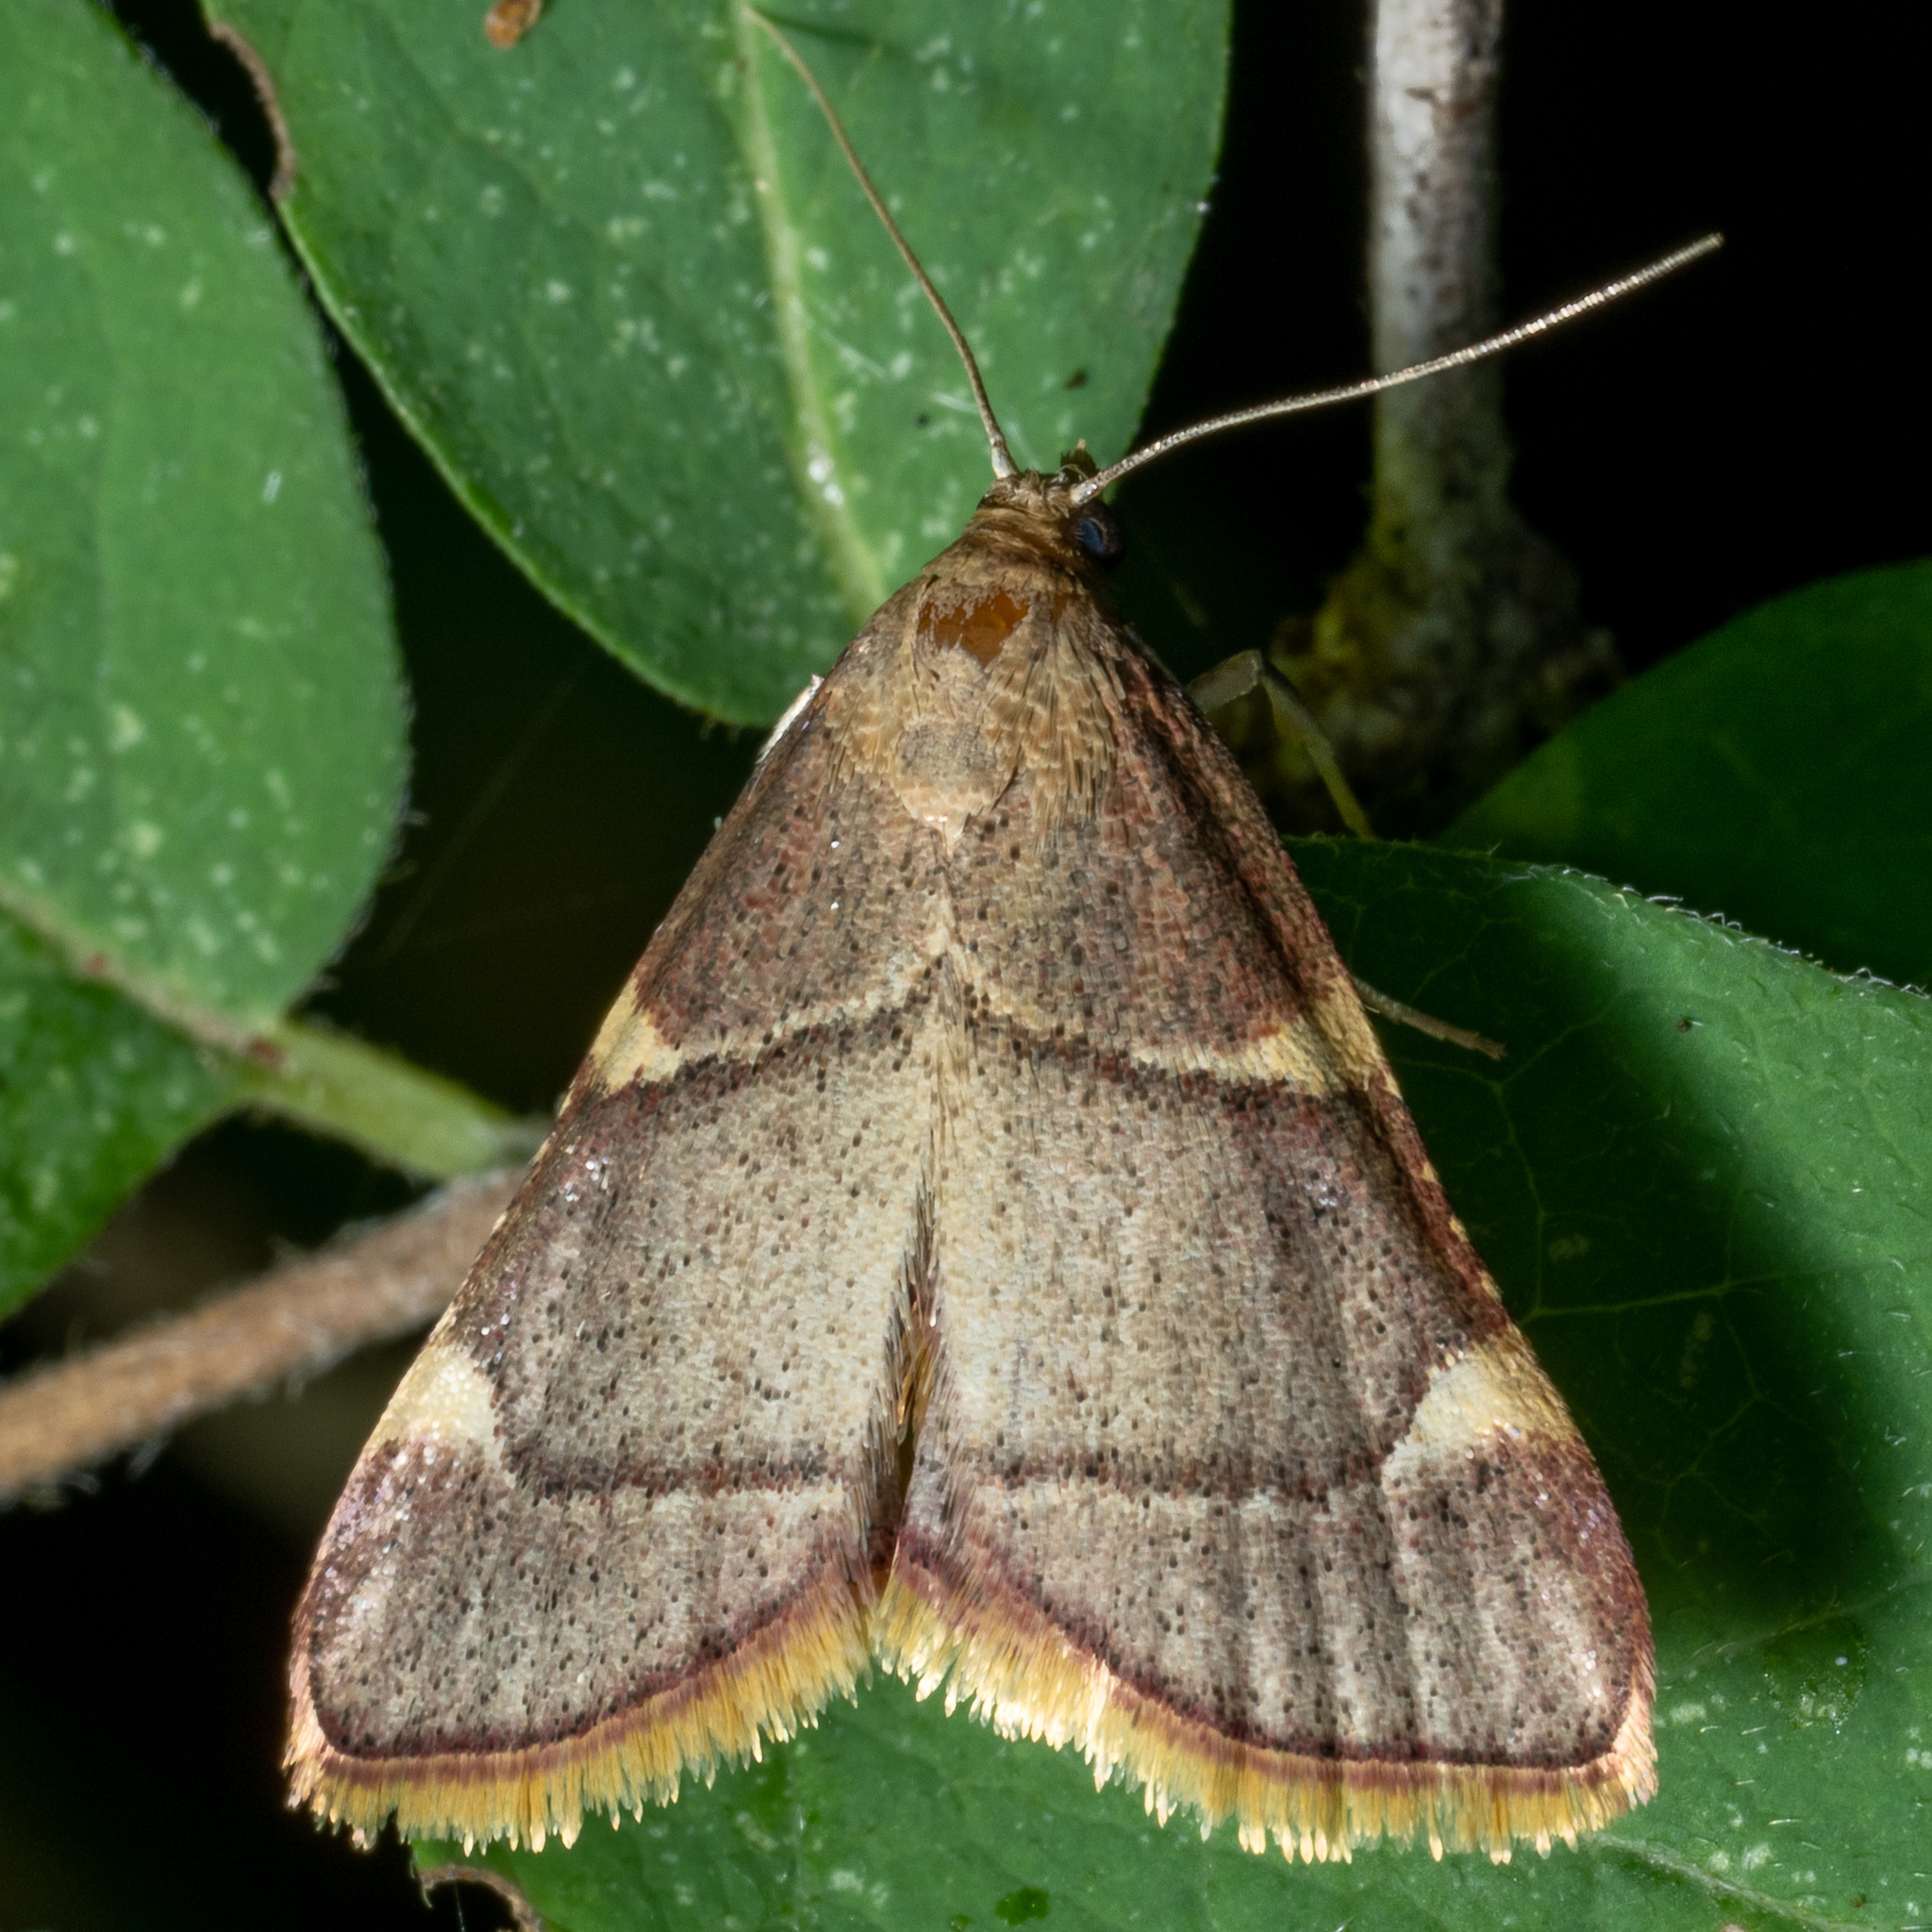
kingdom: Animalia
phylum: Arthropoda
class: Insecta
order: Lepidoptera
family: Pyralidae
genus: Hypsopygia
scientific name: Hypsopygia olinalis
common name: Yellow-fringed dolichomia moth
